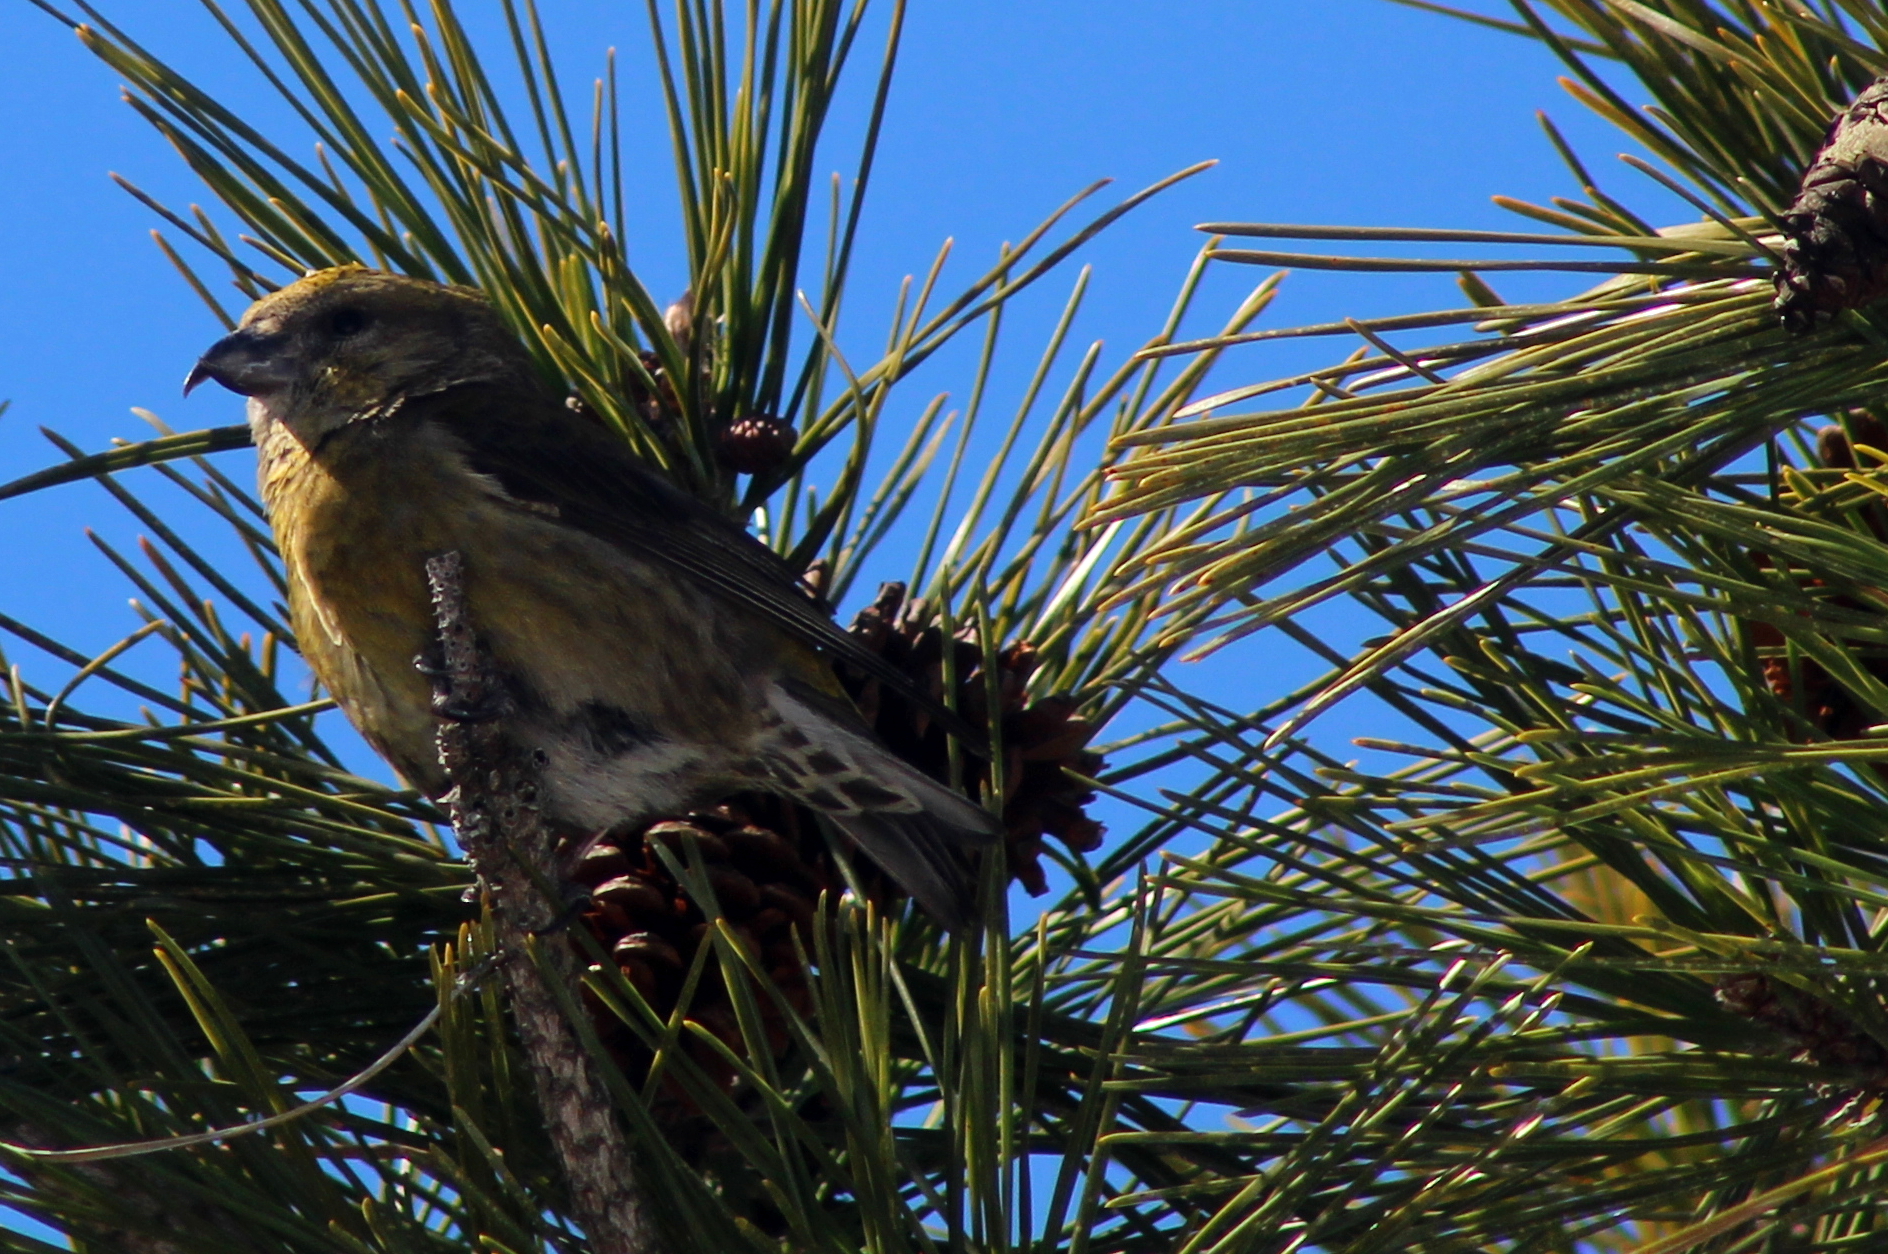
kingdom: Animalia
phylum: Chordata
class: Aves
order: Passeriformes
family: Fringillidae
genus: Loxia
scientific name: Loxia curvirostra
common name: Red crossbill
